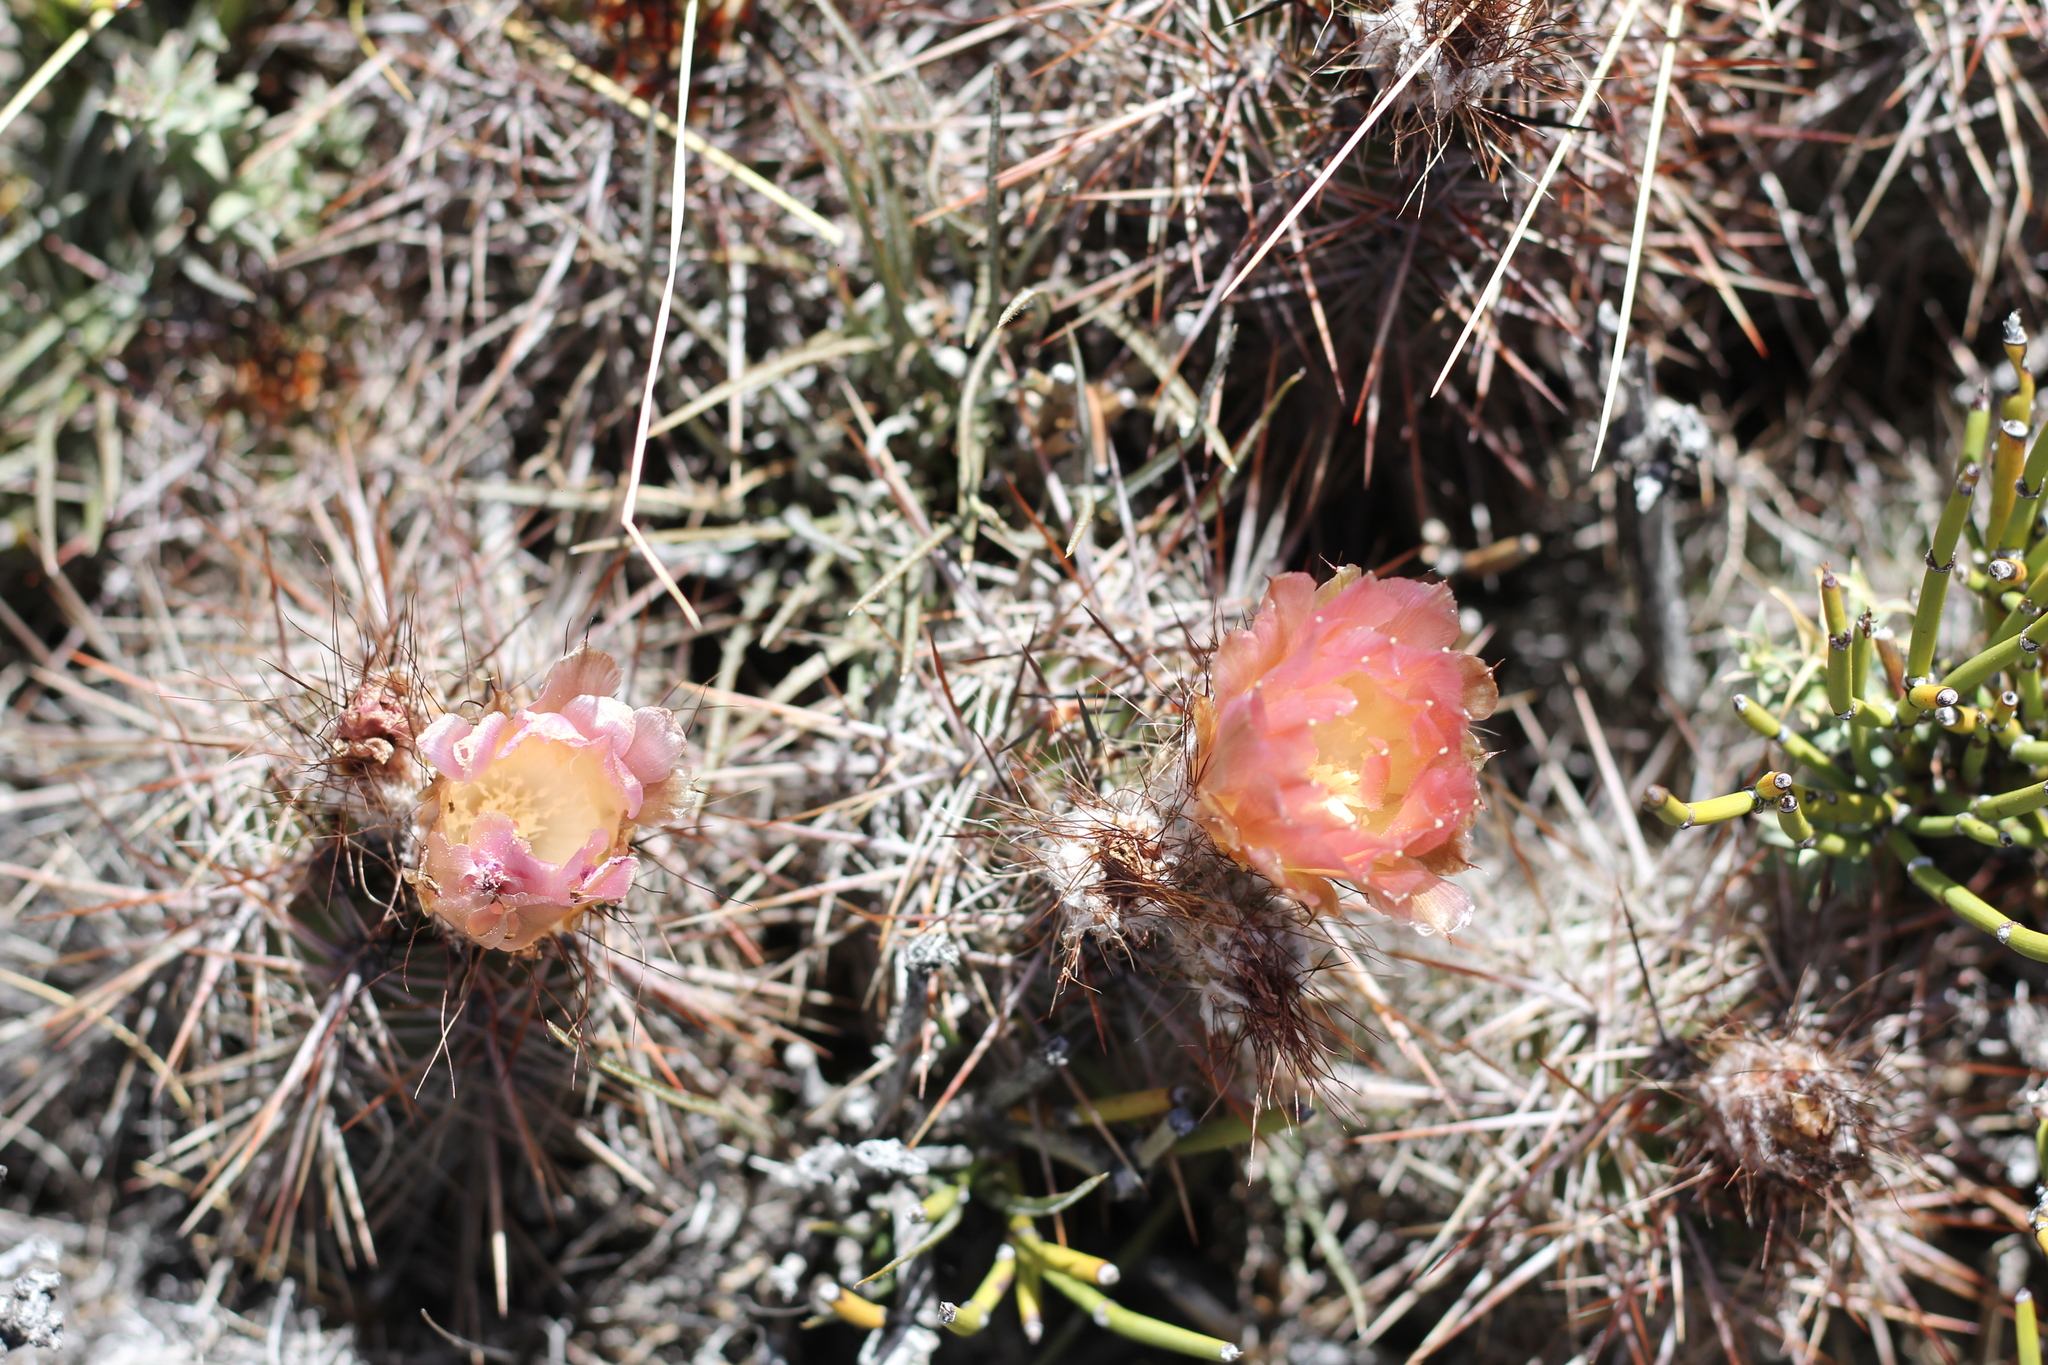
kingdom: Plantae
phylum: Tracheophyta
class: Magnoliopsida
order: Caryophyllales
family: Cactaceae
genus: Austrocactus
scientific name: Austrocactus coxii
